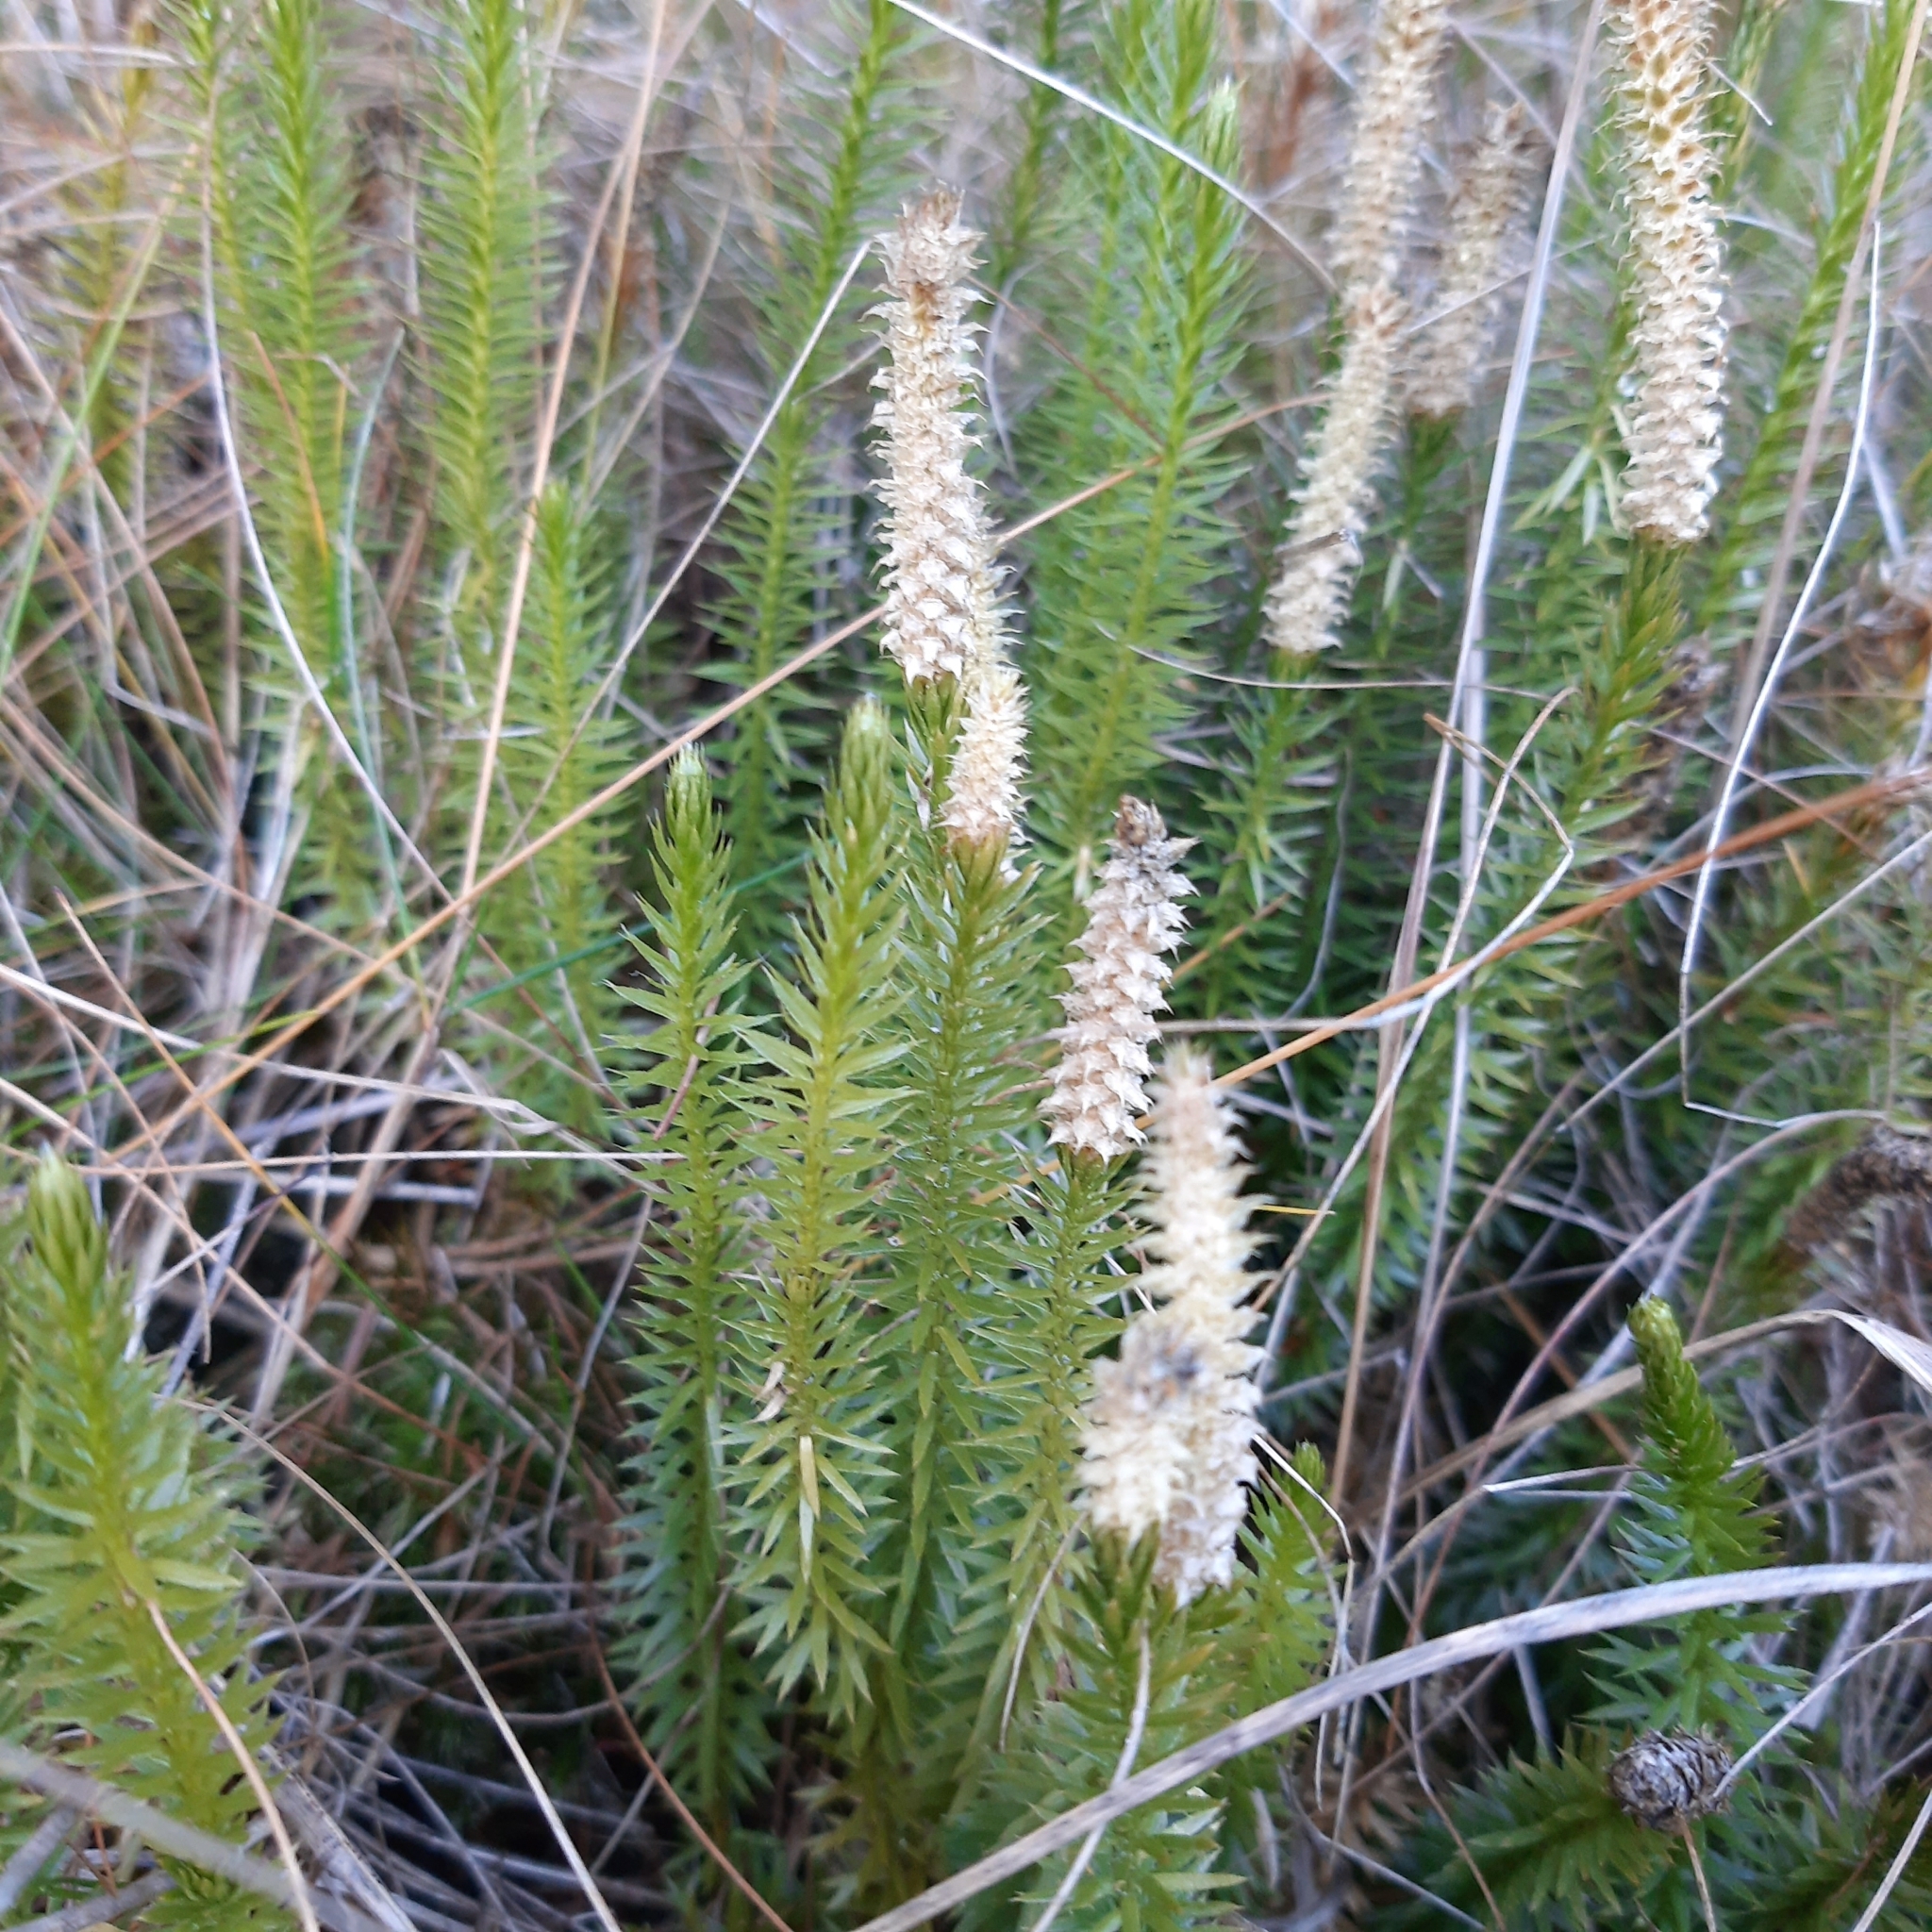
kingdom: Plantae
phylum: Tracheophyta
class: Lycopodiopsida
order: Lycopodiales
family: Lycopodiaceae
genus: Spinulum
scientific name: Spinulum annotinum
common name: Interrupted club-moss
